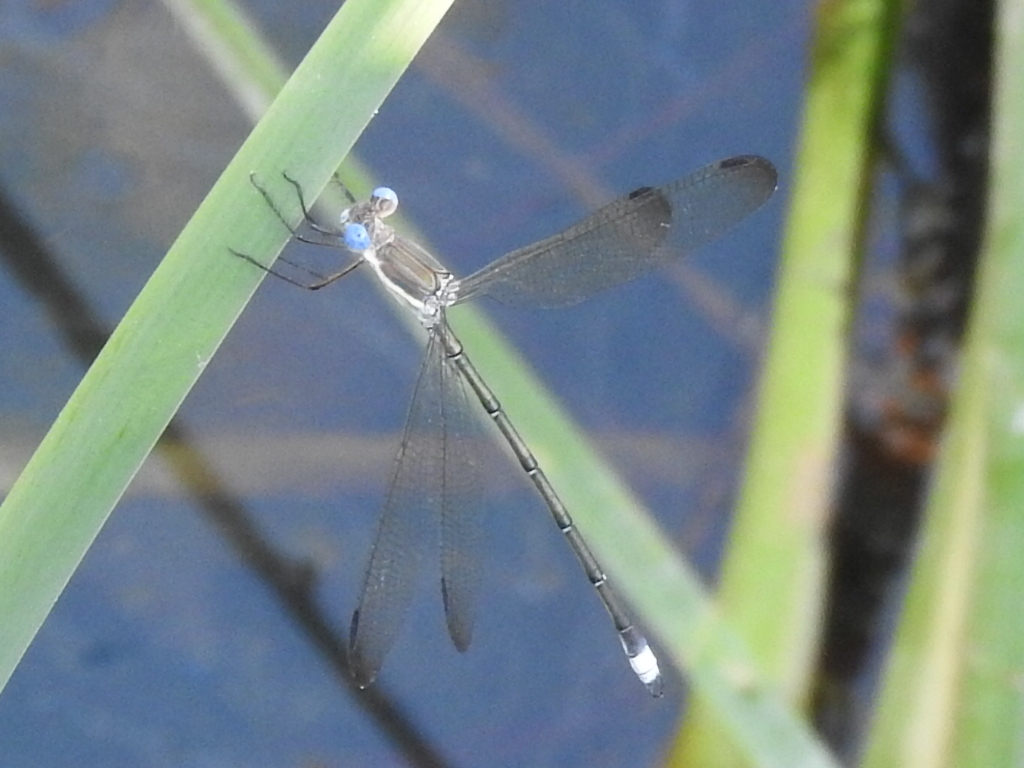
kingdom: Animalia
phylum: Arthropoda
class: Insecta
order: Odonata
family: Lestidae
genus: Archilestes
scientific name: Archilestes grandis
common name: Great spreadwing
